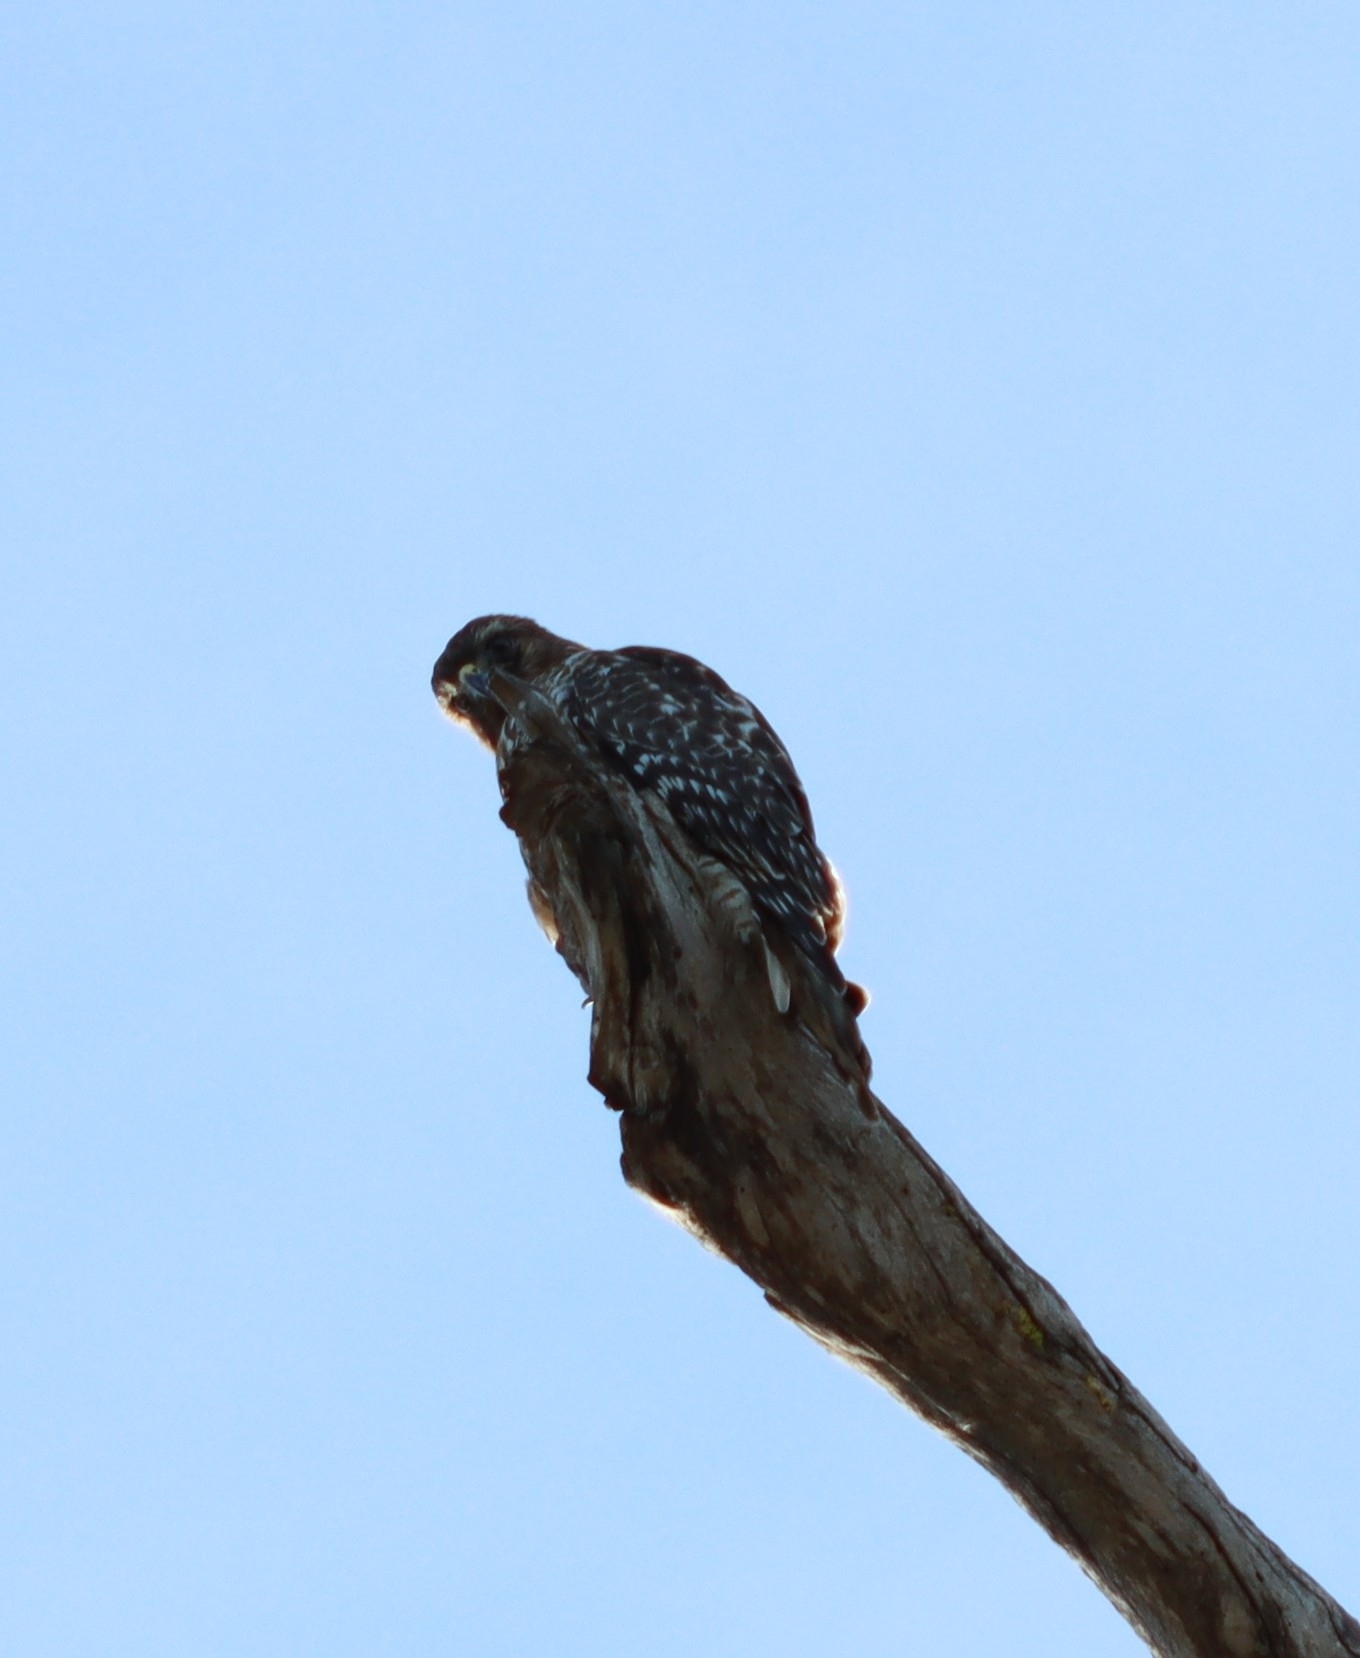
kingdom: Animalia
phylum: Chordata
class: Aves
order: Accipitriformes
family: Accipitridae
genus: Buteo
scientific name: Buteo lineatus
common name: Red-shouldered hawk
